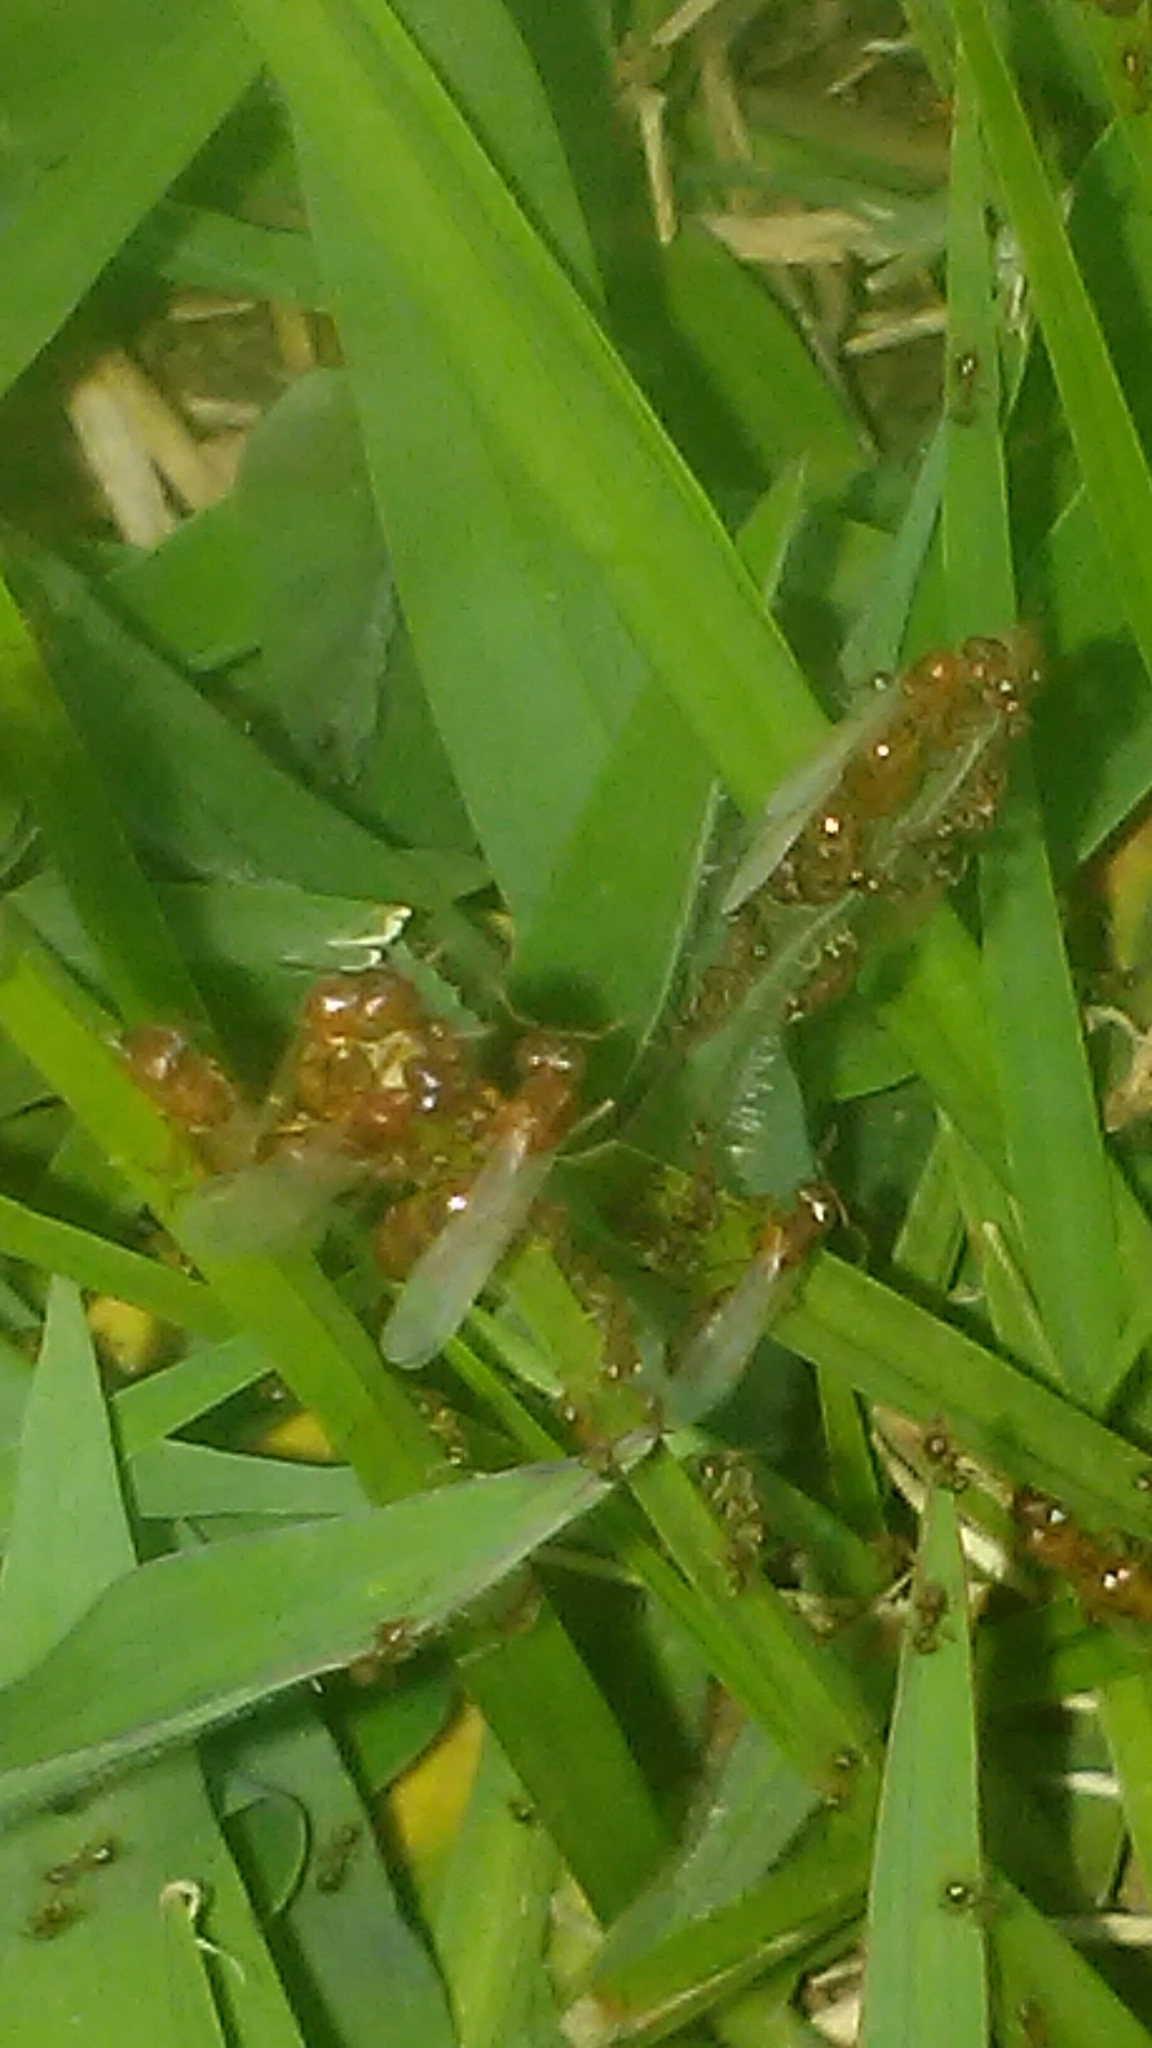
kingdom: Animalia
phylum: Arthropoda
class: Insecta
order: Hymenoptera
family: Formicidae
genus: Pheidole
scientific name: Pheidole bicarinata
